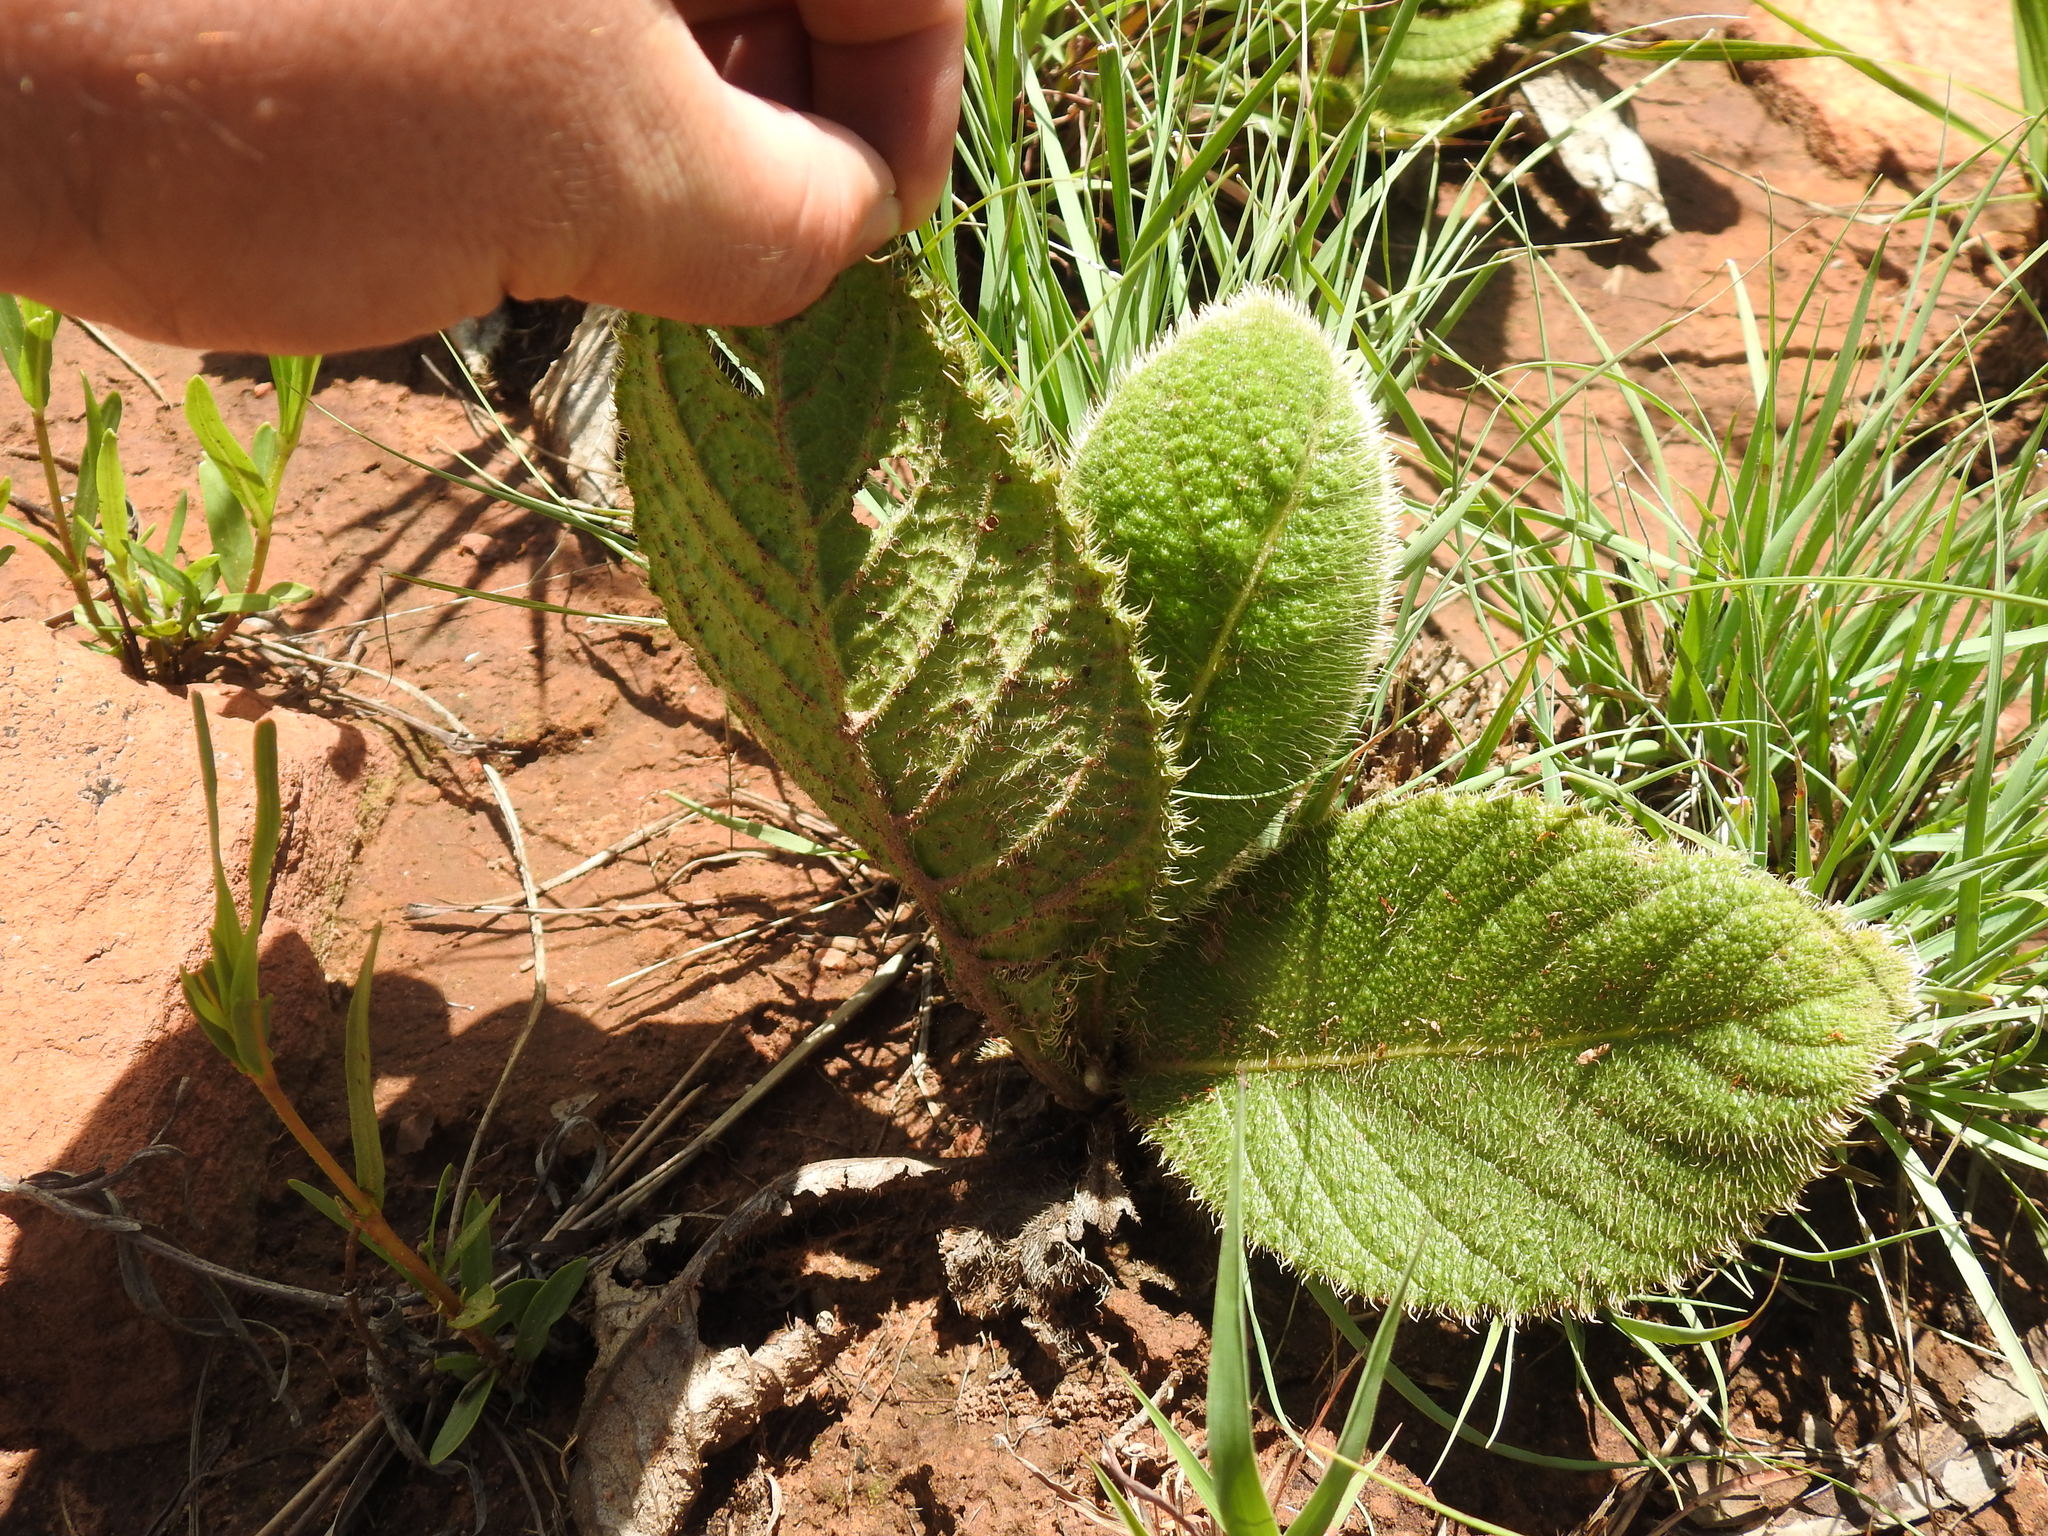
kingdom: Plantae
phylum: Tracheophyta
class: Magnoliopsida
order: Asterales
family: Asteraceae
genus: Berkheya
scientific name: Berkheya setifera
